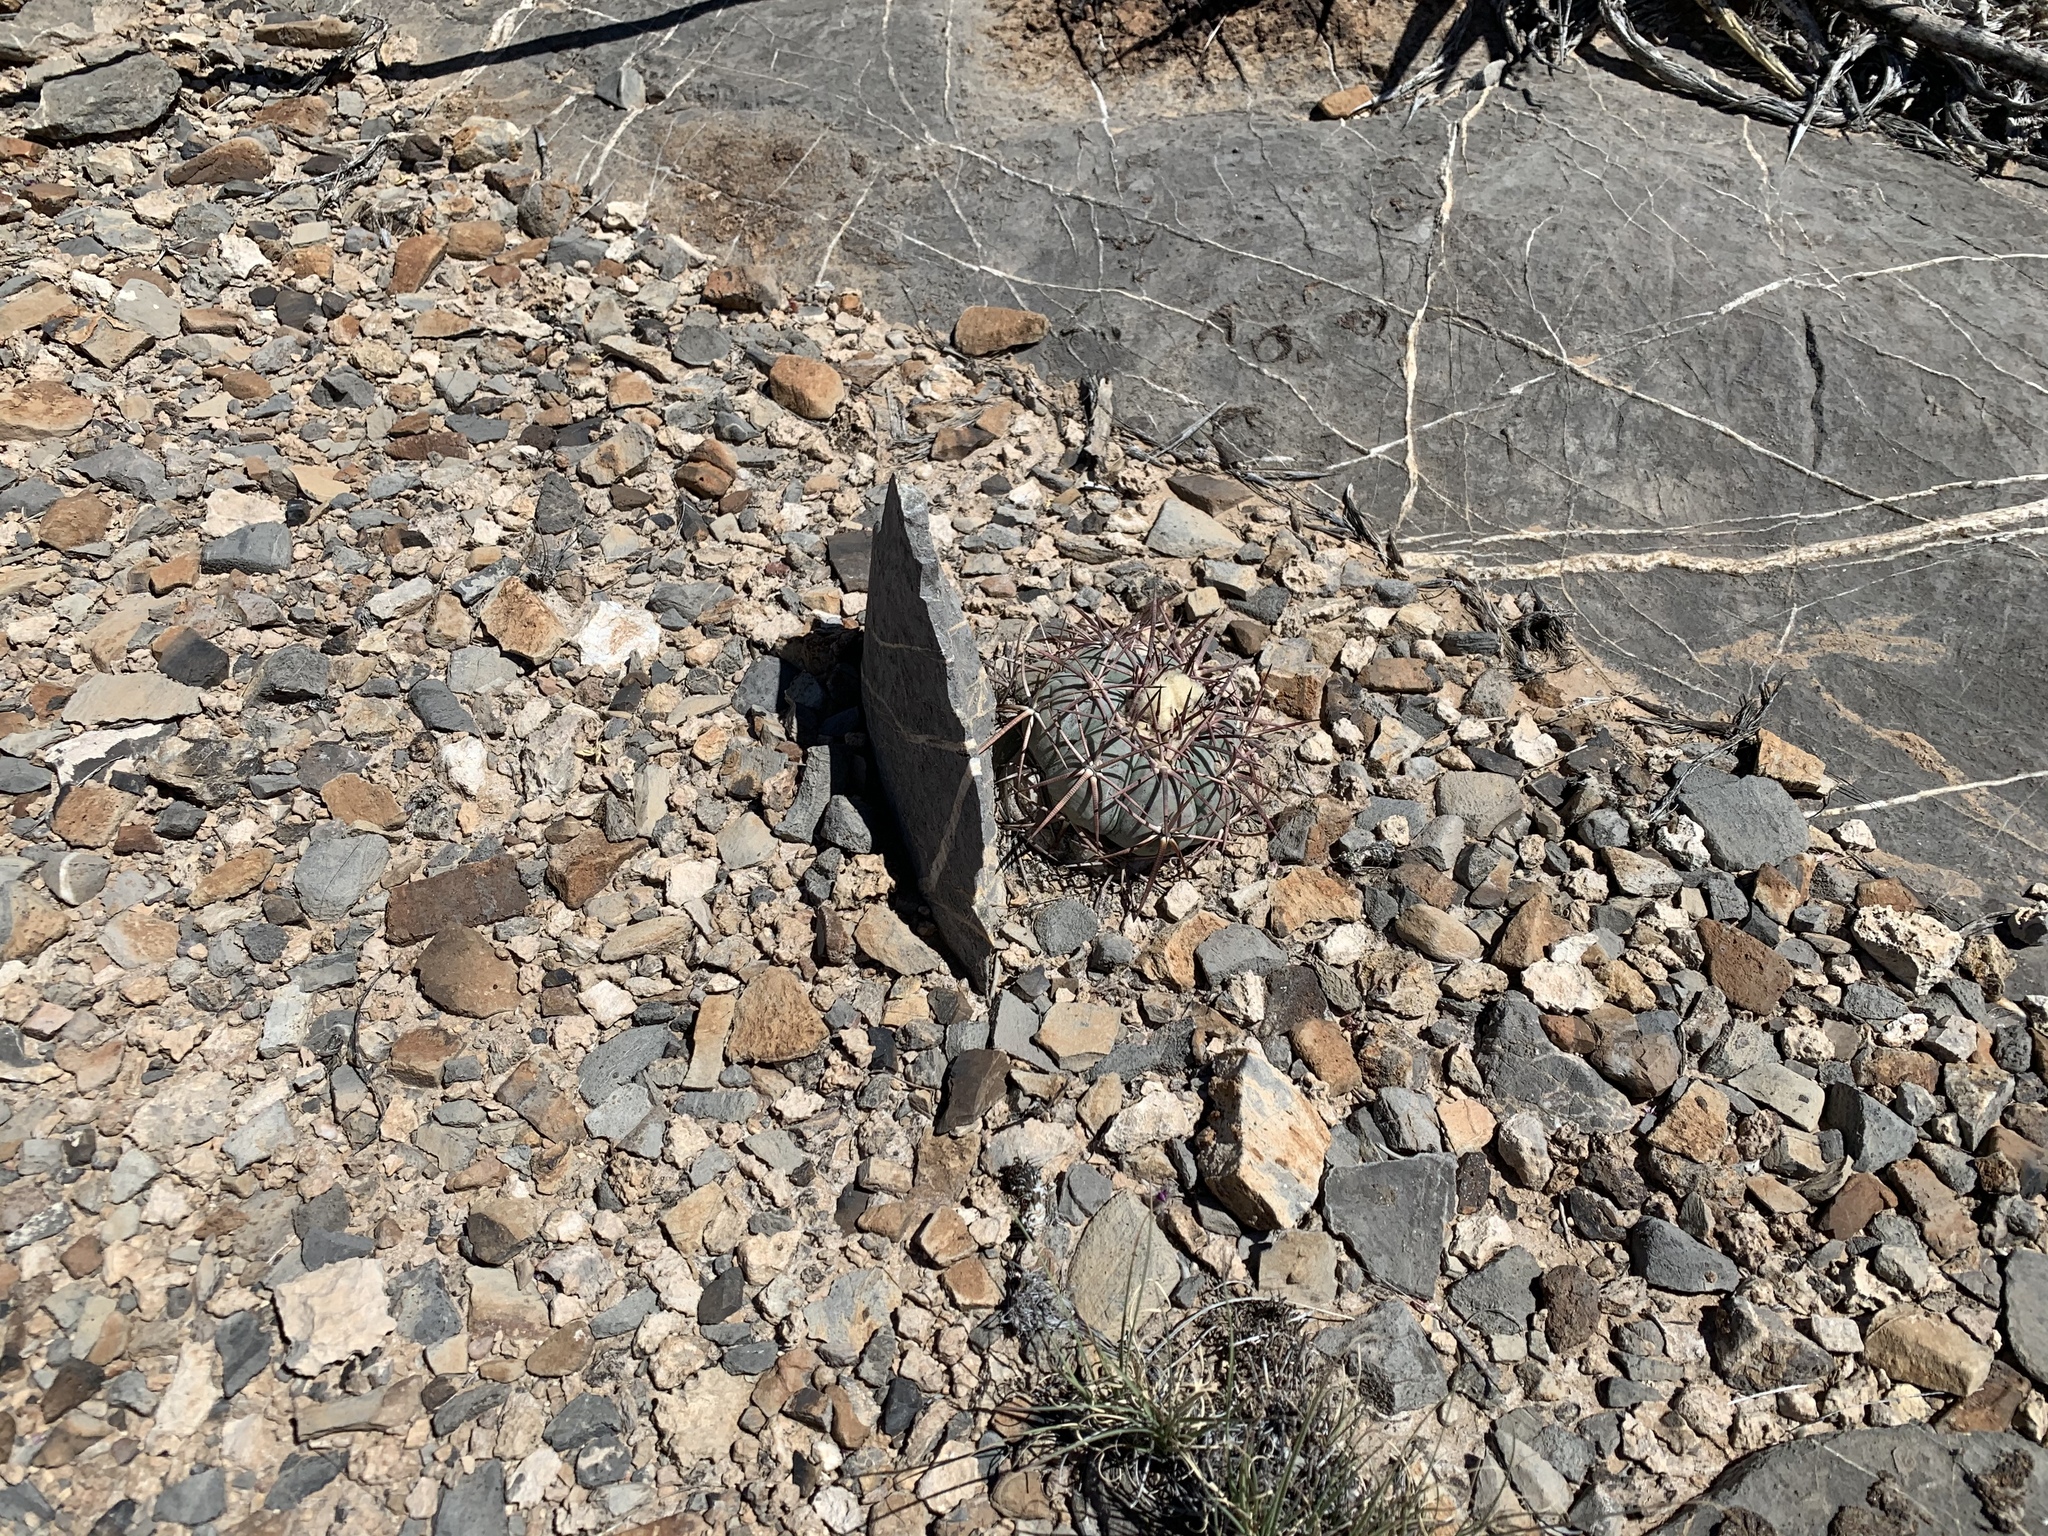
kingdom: Plantae
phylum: Tracheophyta
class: Magnoliopsida
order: Caryophyllales
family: Cactaceae
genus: Echinocactus
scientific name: Echinocactus horizonthalonius
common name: Devilshead
